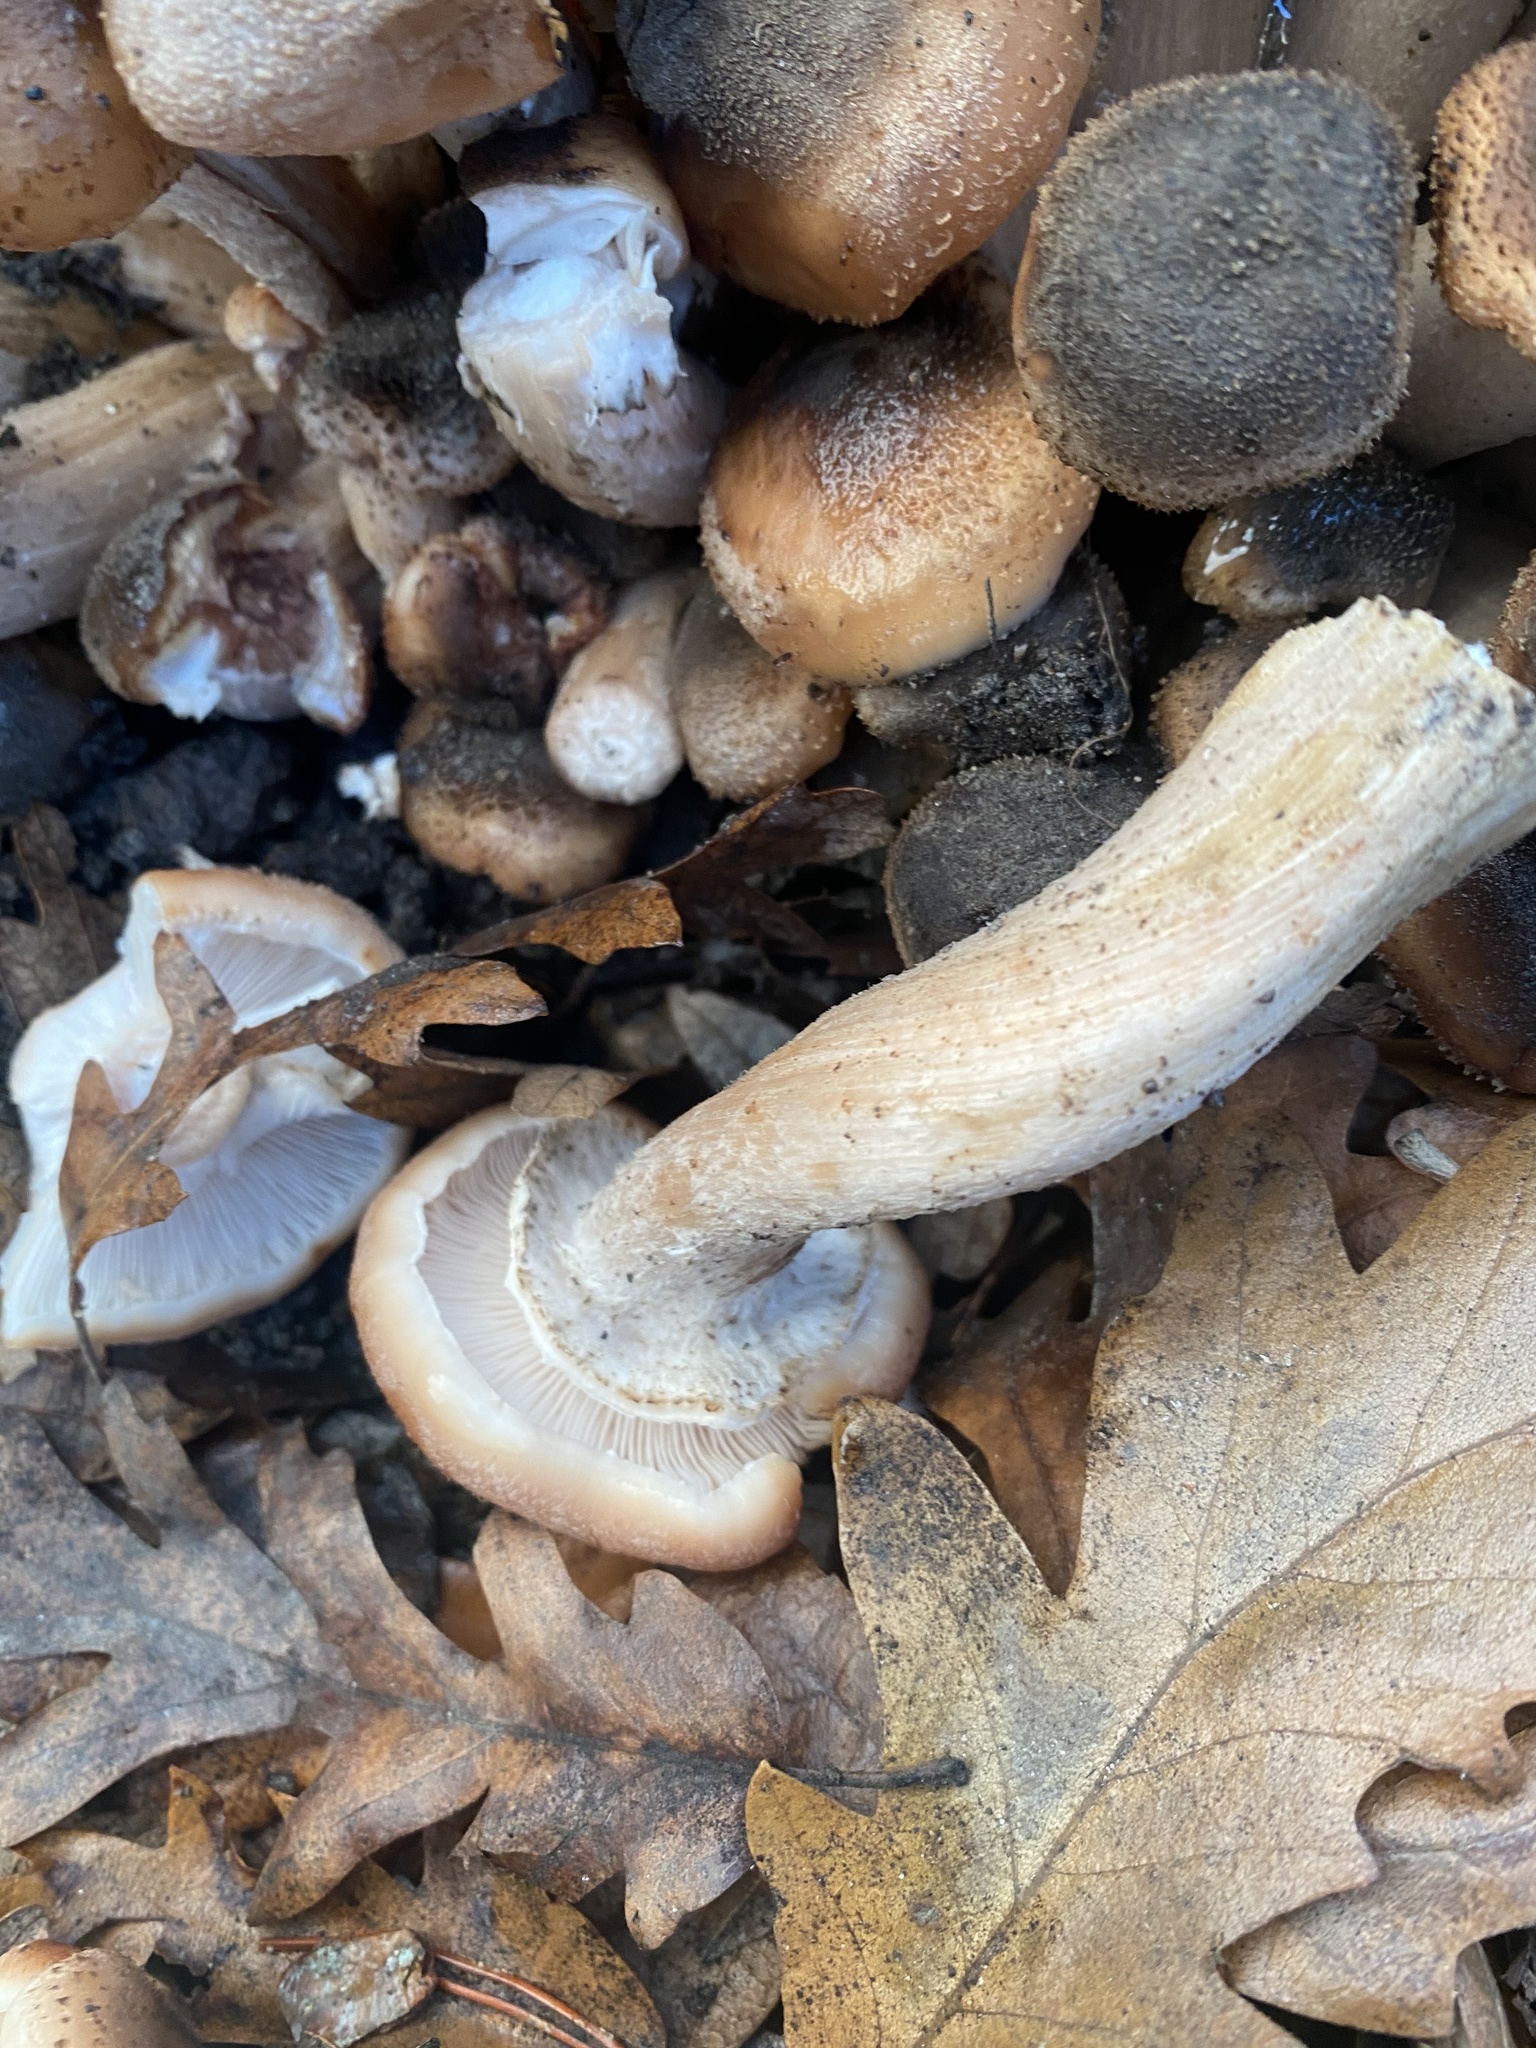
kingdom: Fungi
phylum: Basidiomycota
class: Agaricomycetes
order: Agaricales
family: Physalacriaceae
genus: Armillaria
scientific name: Armillaria mellea
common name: Honey fungus
